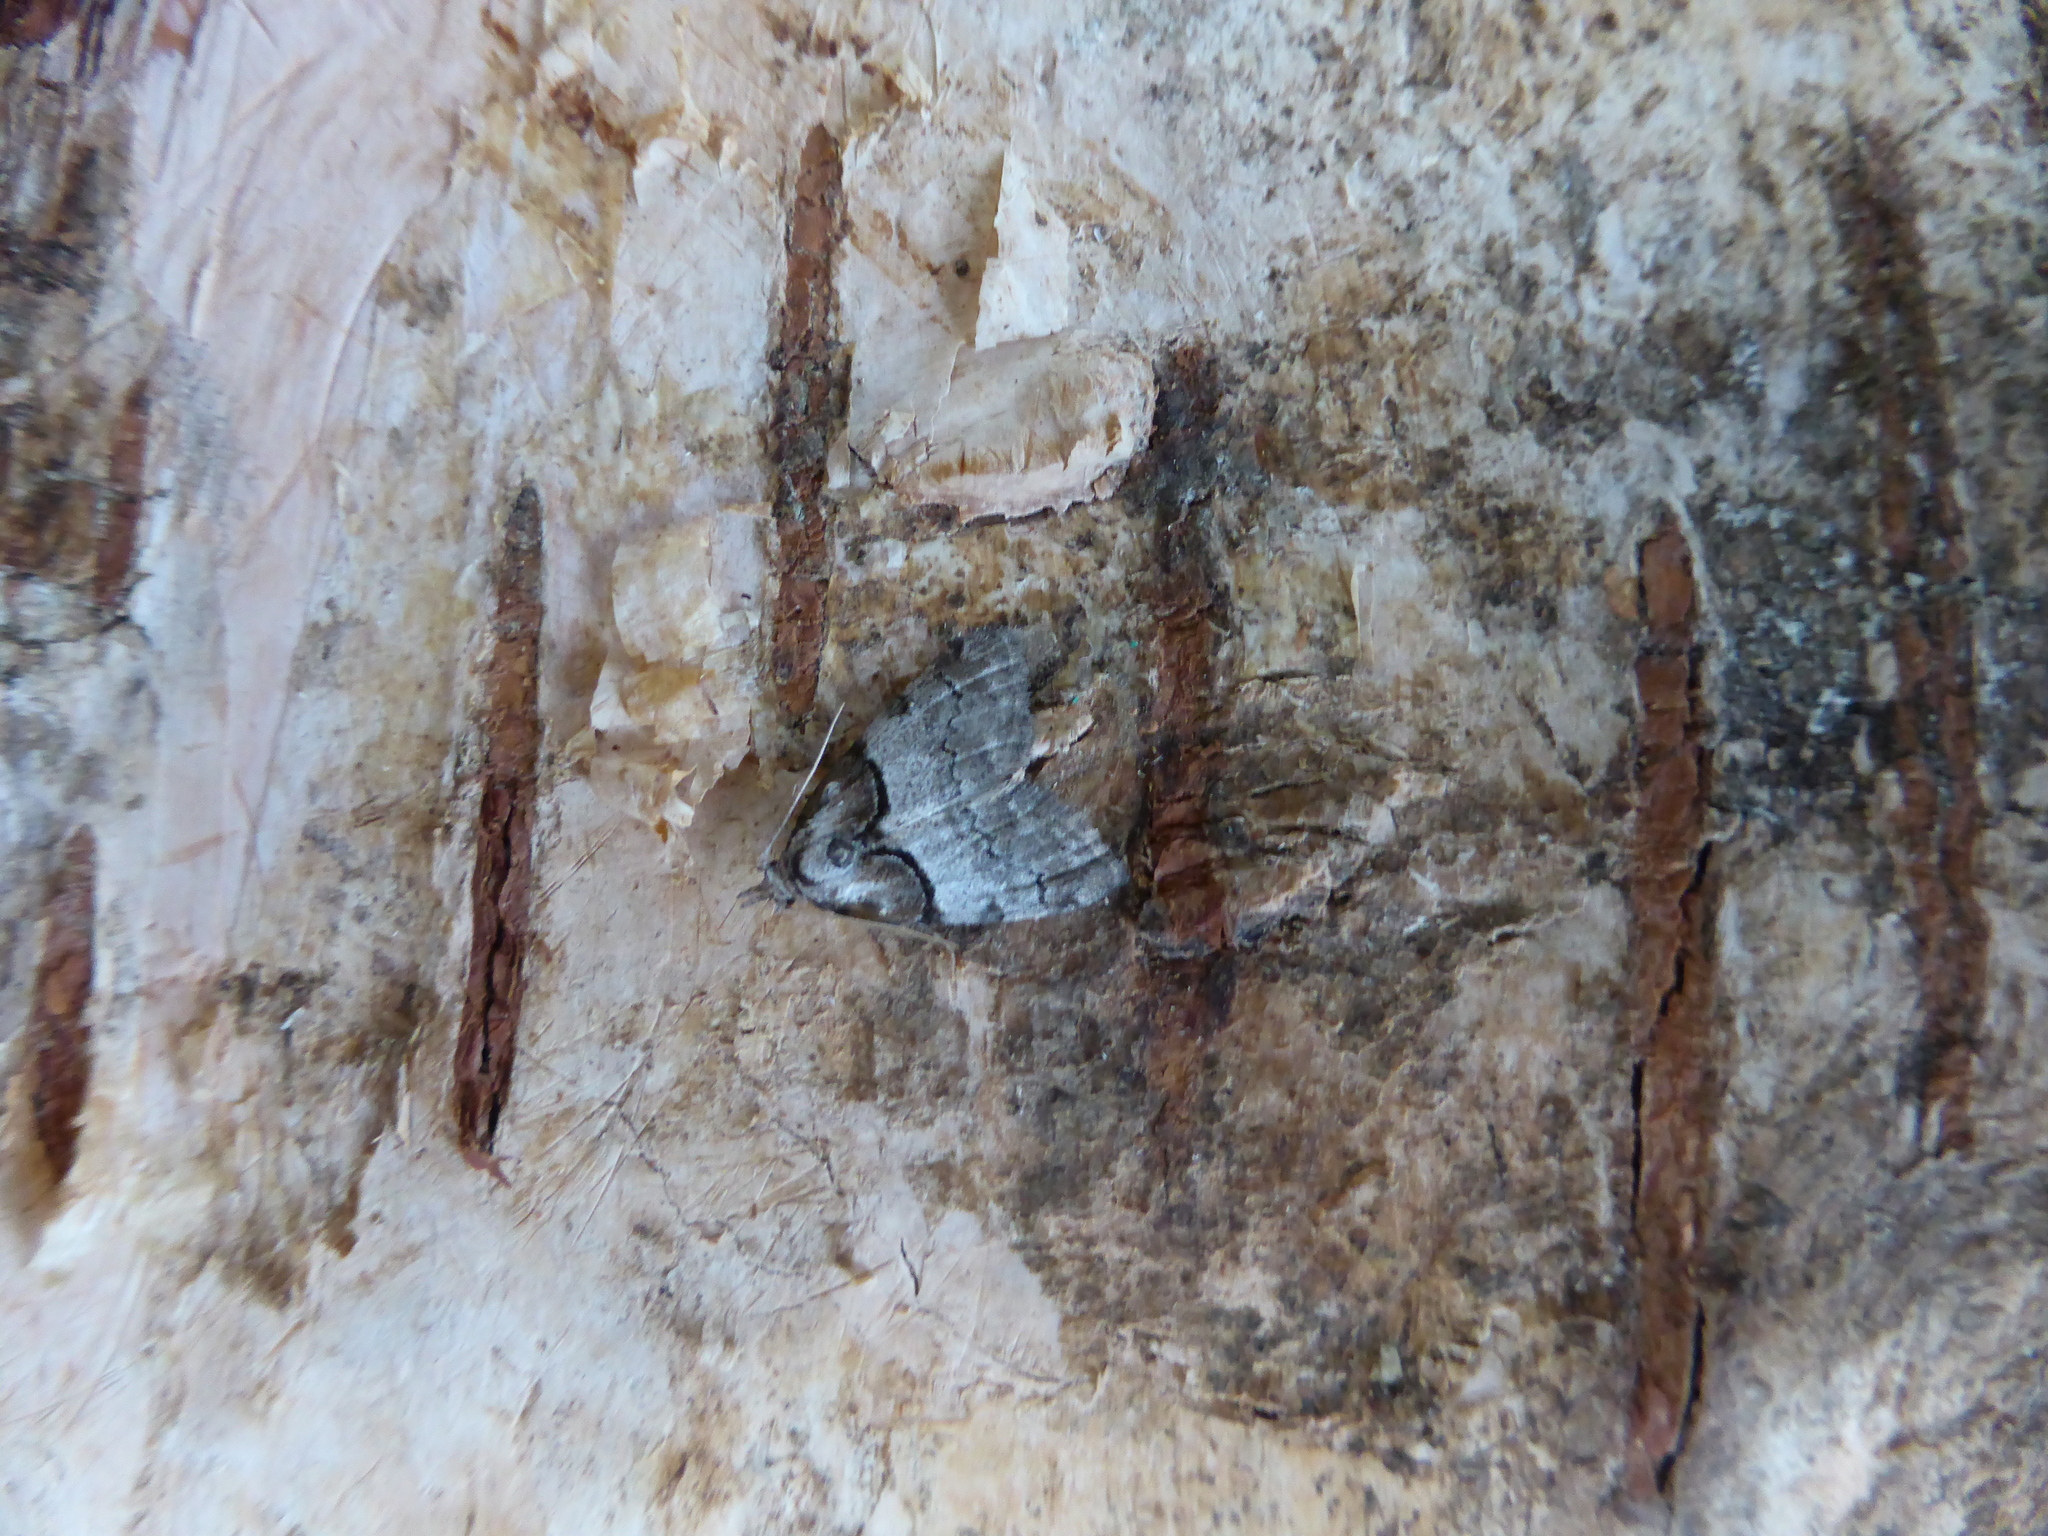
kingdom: Animalia
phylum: Arthropoda
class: Insecta
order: Lepidoptera
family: Nolidae
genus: Nola
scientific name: Nola cucullatella
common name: Short-cloaked moth
